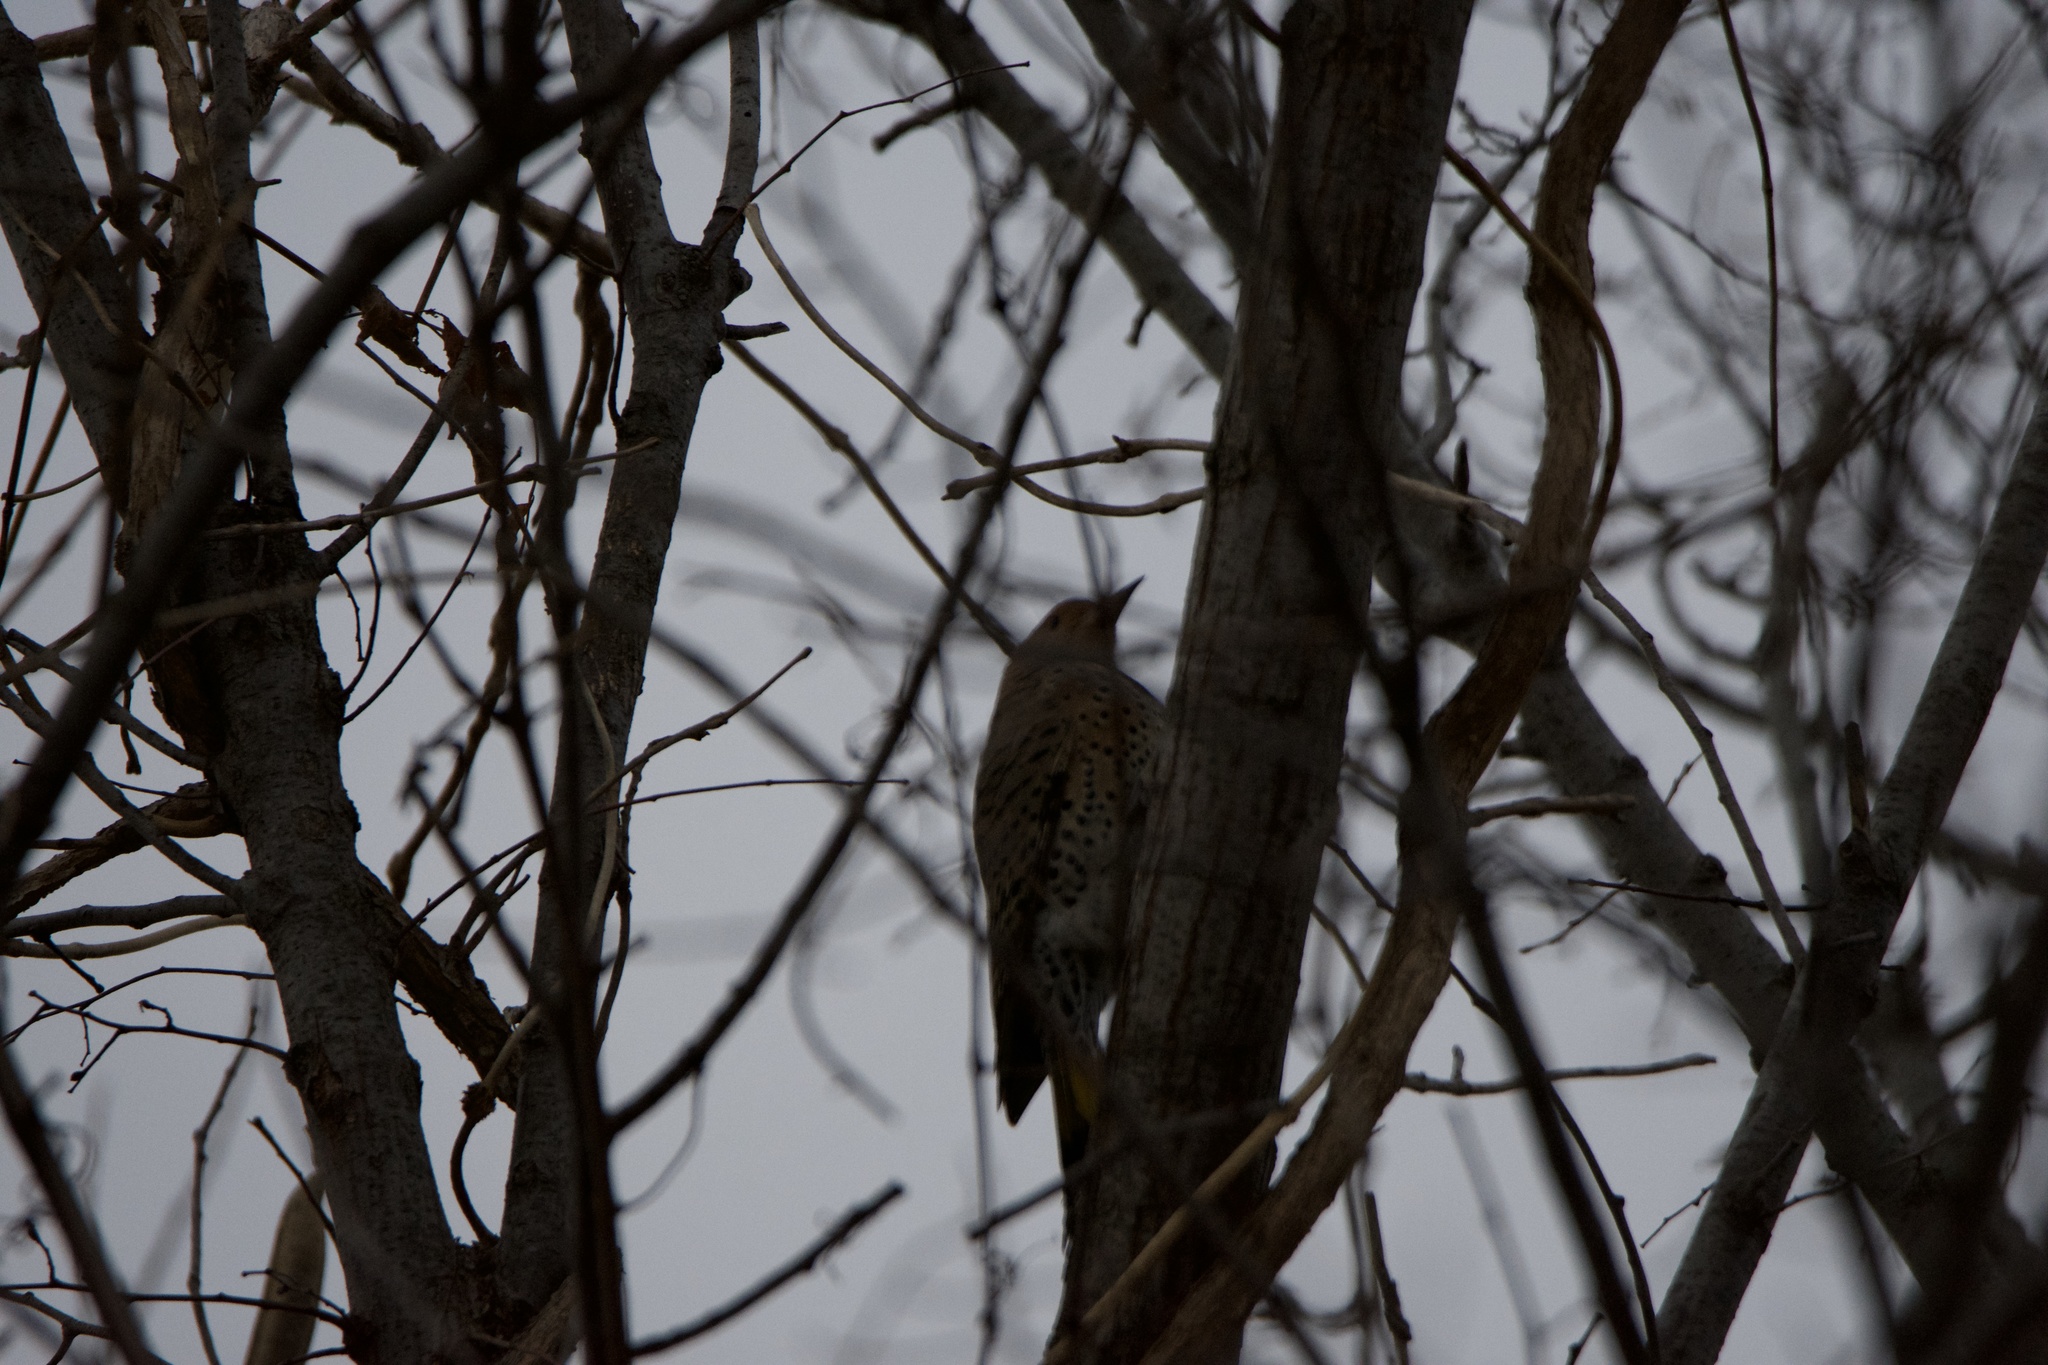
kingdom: Animalia
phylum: Chordata
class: Aves
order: Piciformes
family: Picidae
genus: Colaptes
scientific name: Colaptes auratus
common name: Northern flicker
